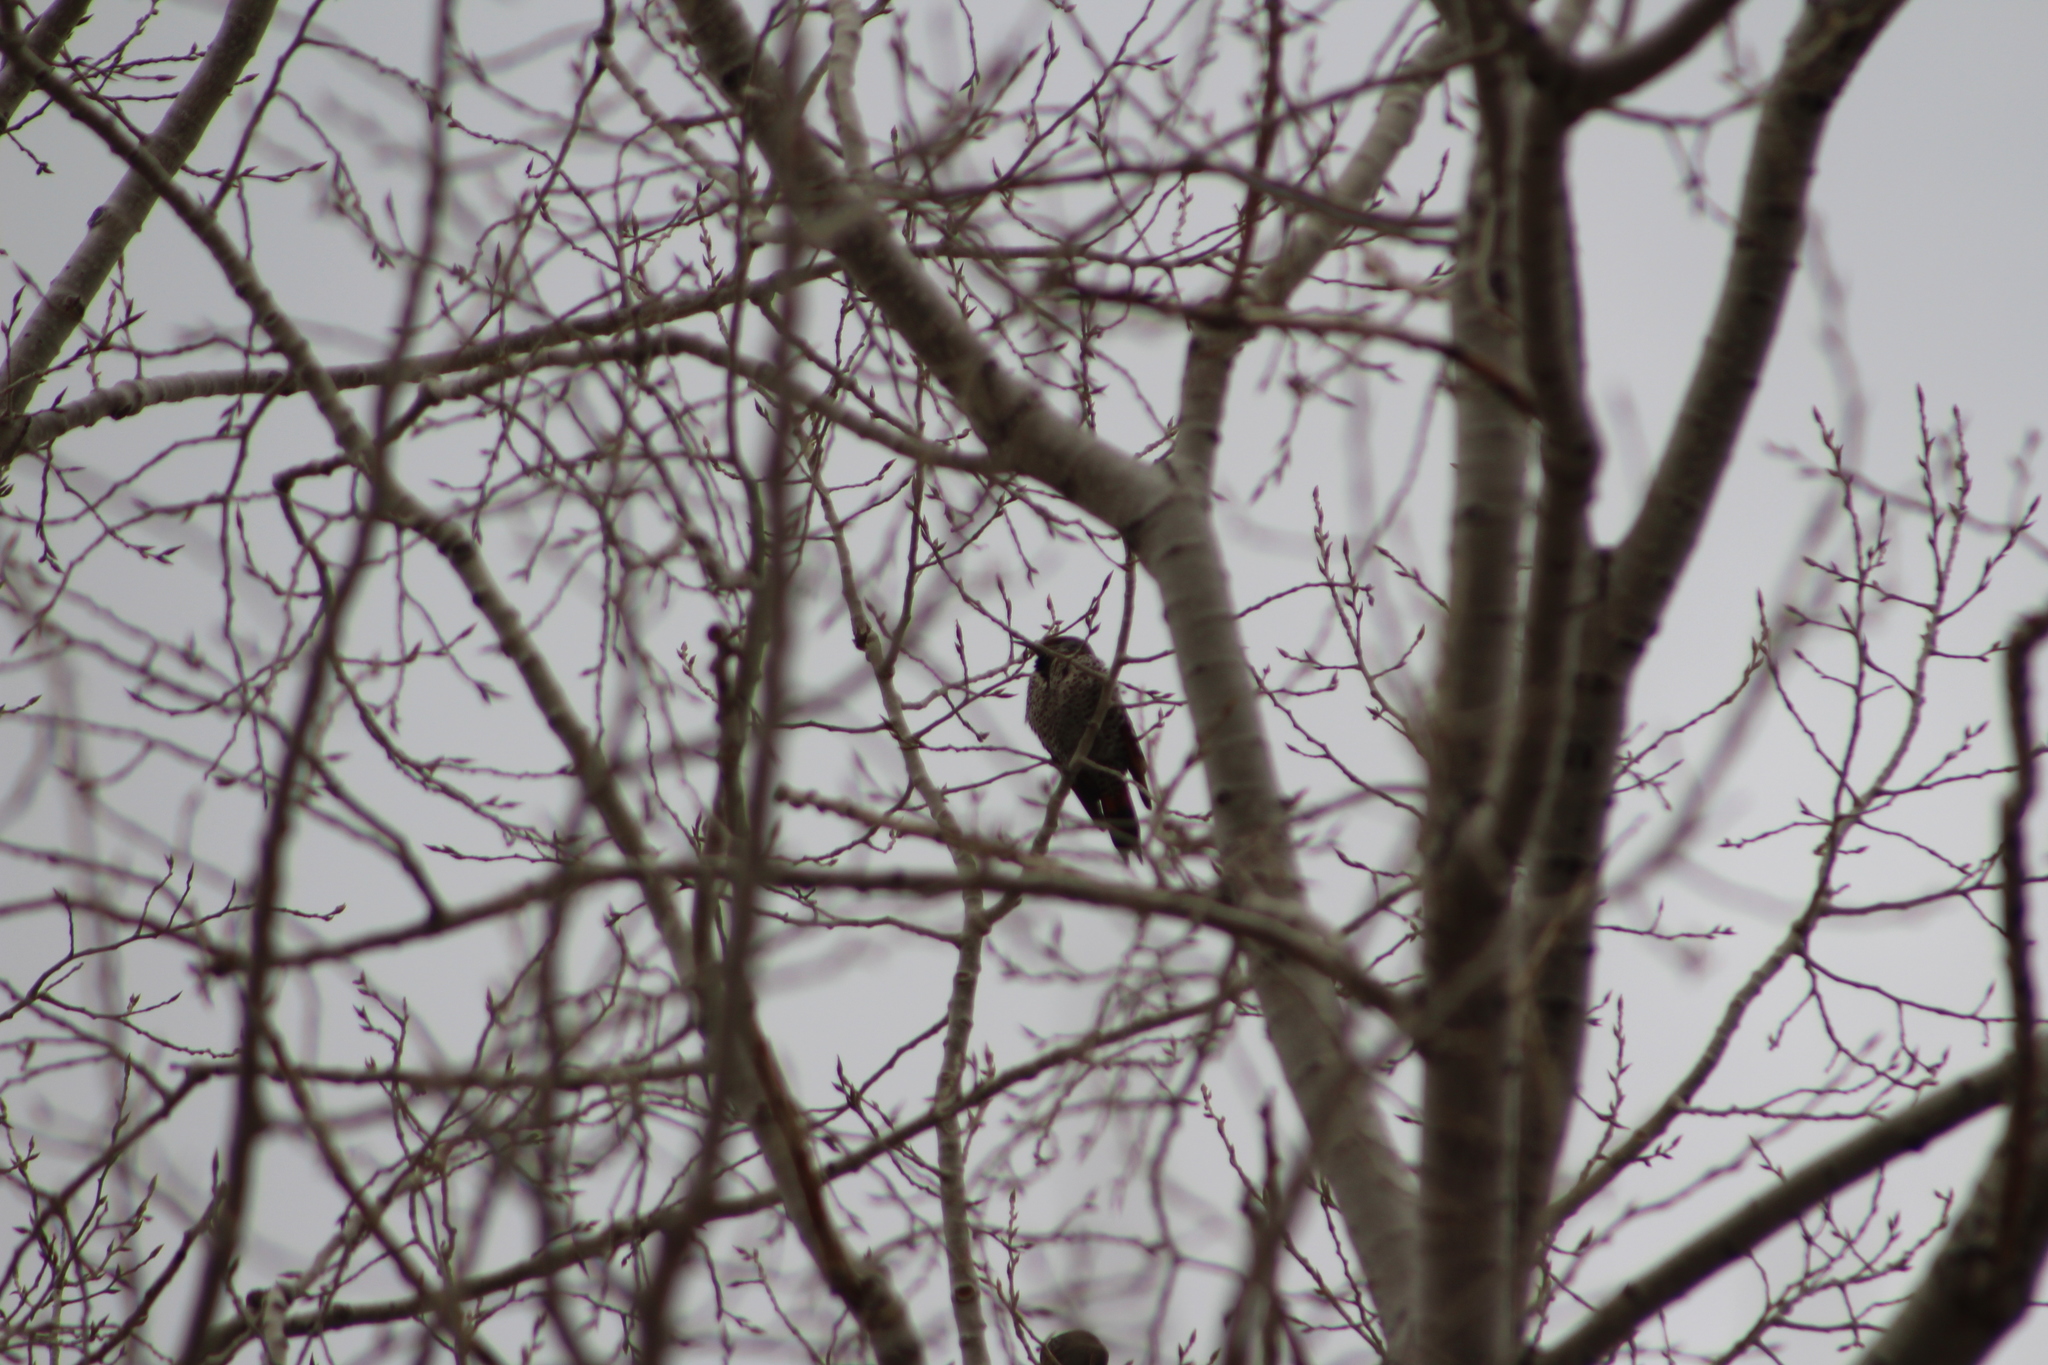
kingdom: Animalia
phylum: Chordata
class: Aves
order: Piciformes
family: Picidae
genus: Colaptes
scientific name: Colaptes auratus
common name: Northern flicker
